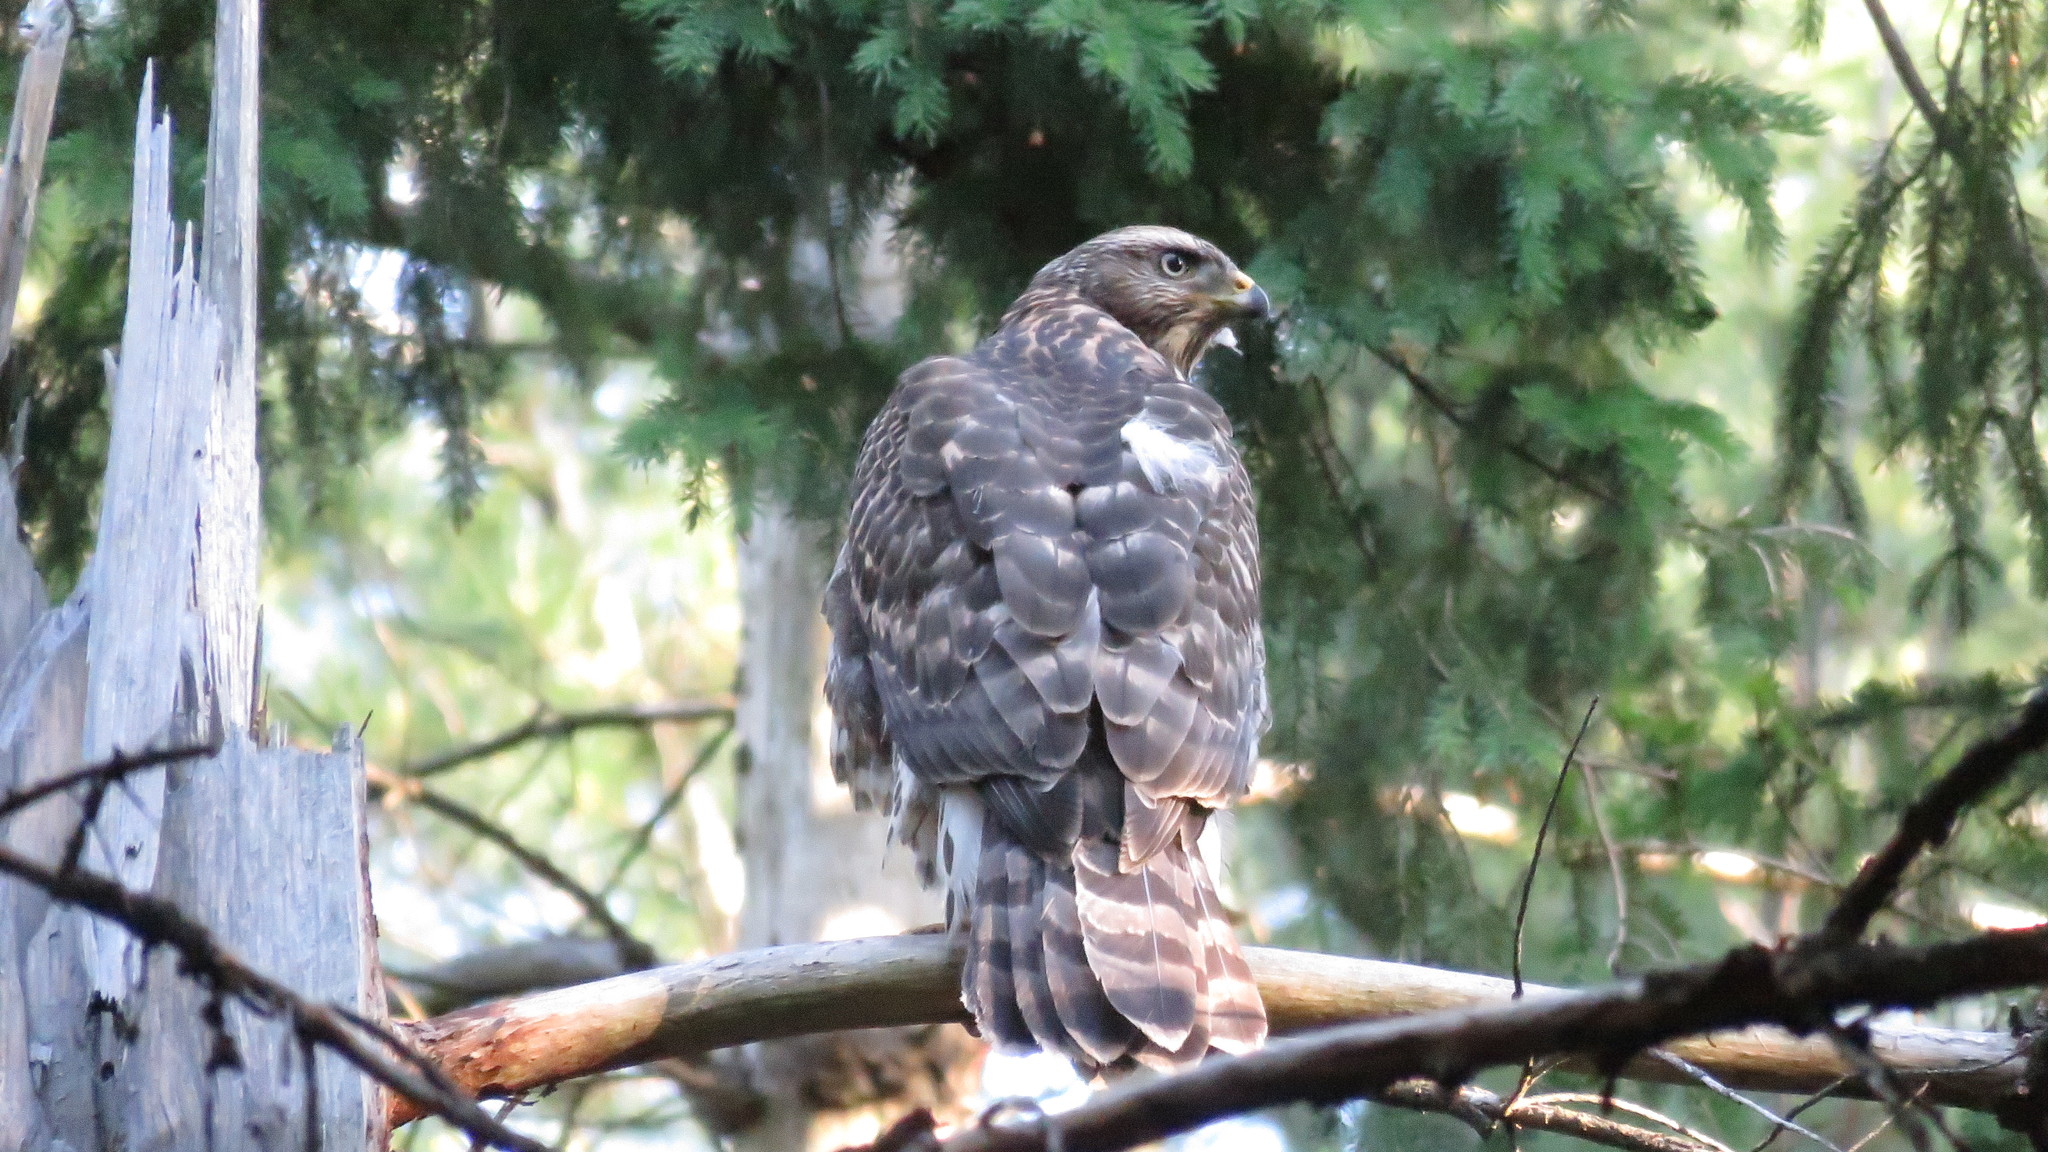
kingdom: Animalia
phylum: Chordata
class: Aves
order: Accipitriformes
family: Accipitridae
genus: Accipiter
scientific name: Accipiter gentilis
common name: Northern goshawk
